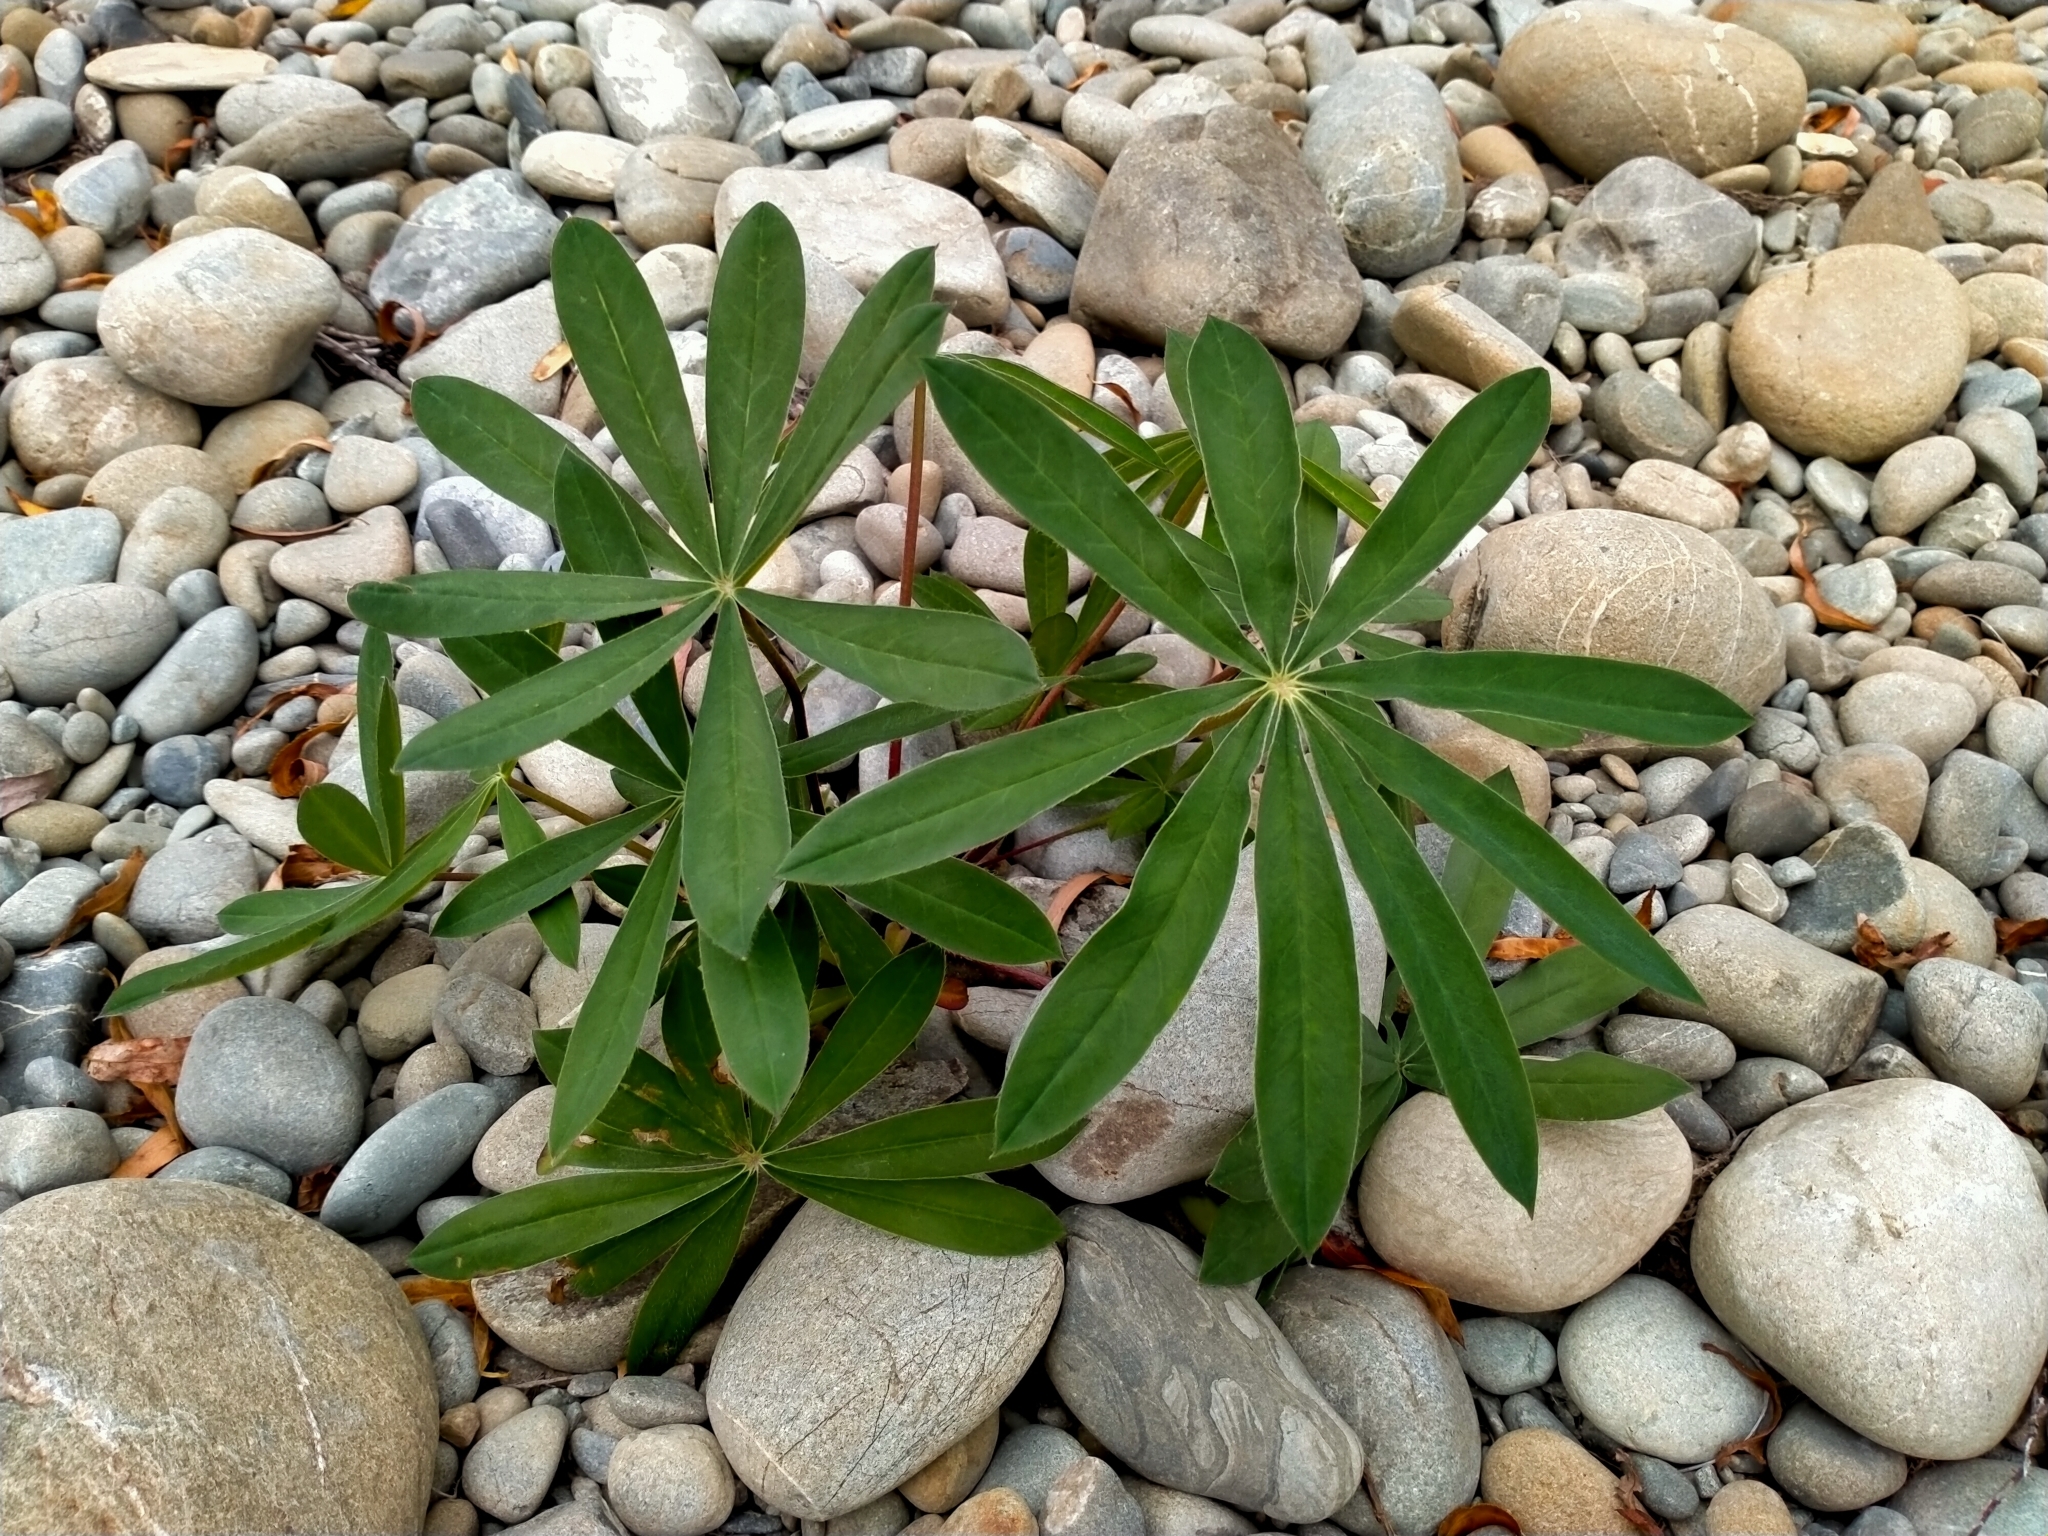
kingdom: Plantae
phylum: Tracheophyta
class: Magnoliopsida
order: Fabales
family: Fabaceae
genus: Lupinus
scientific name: Lupinus polyphyllus
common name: Garden lupin
